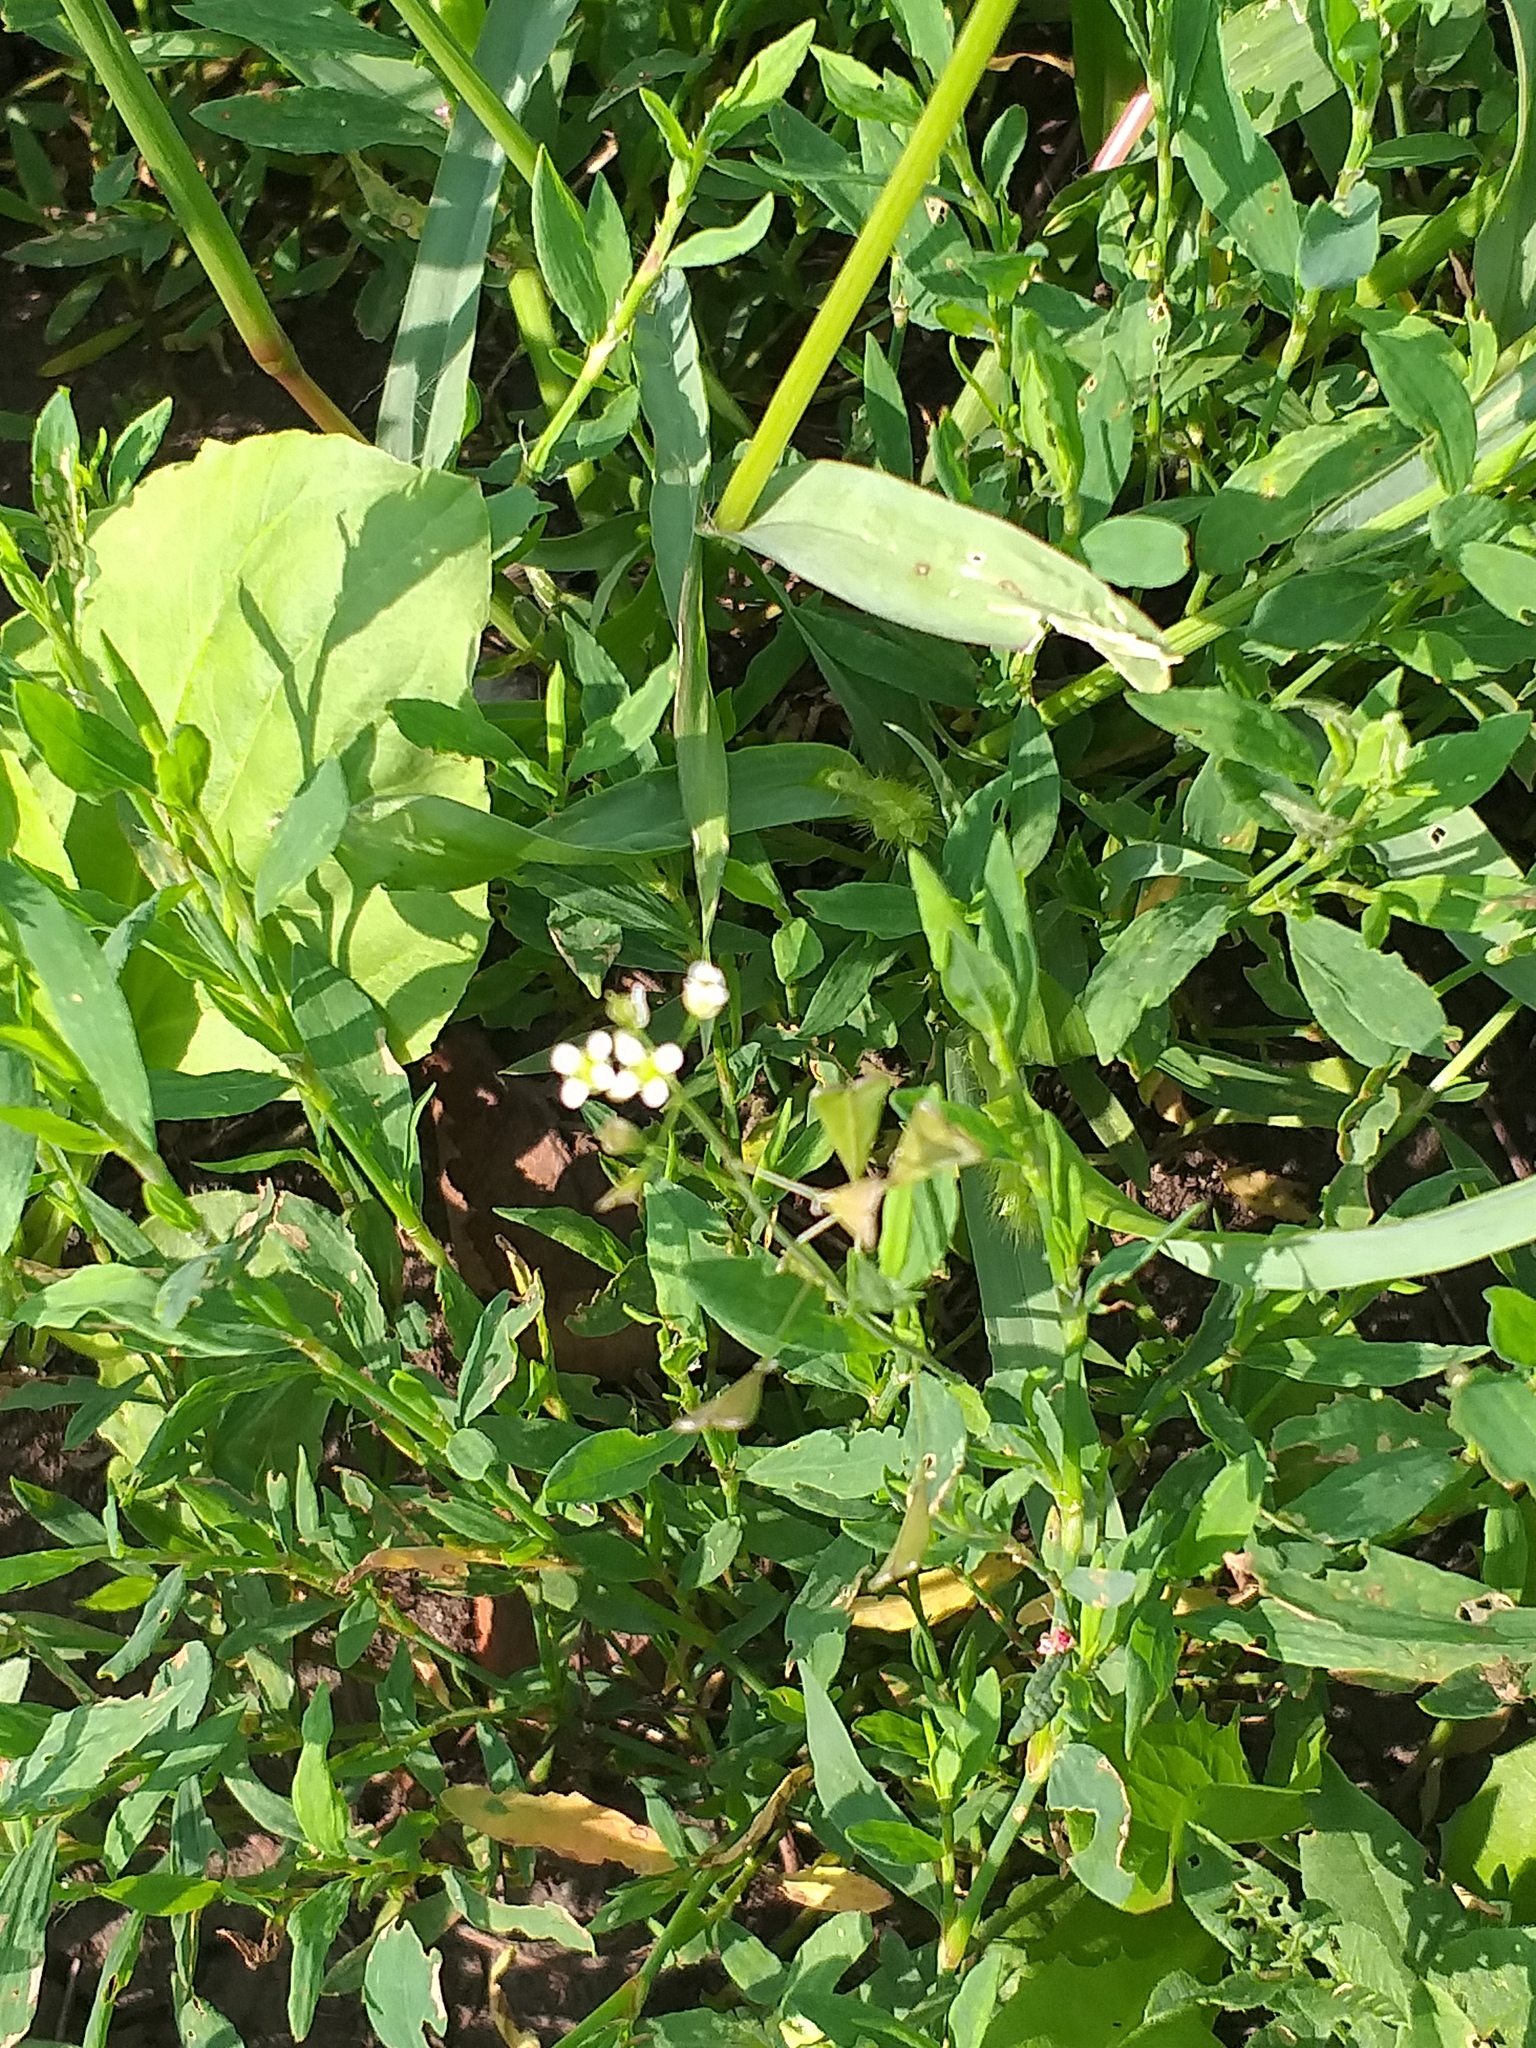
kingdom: Plantae
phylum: Tracheophyta
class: Magnoliopsida
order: Brassicales
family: Brassicaceae
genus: Capsella
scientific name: Capsella bursa-pastoris
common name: Shepherd's purse
